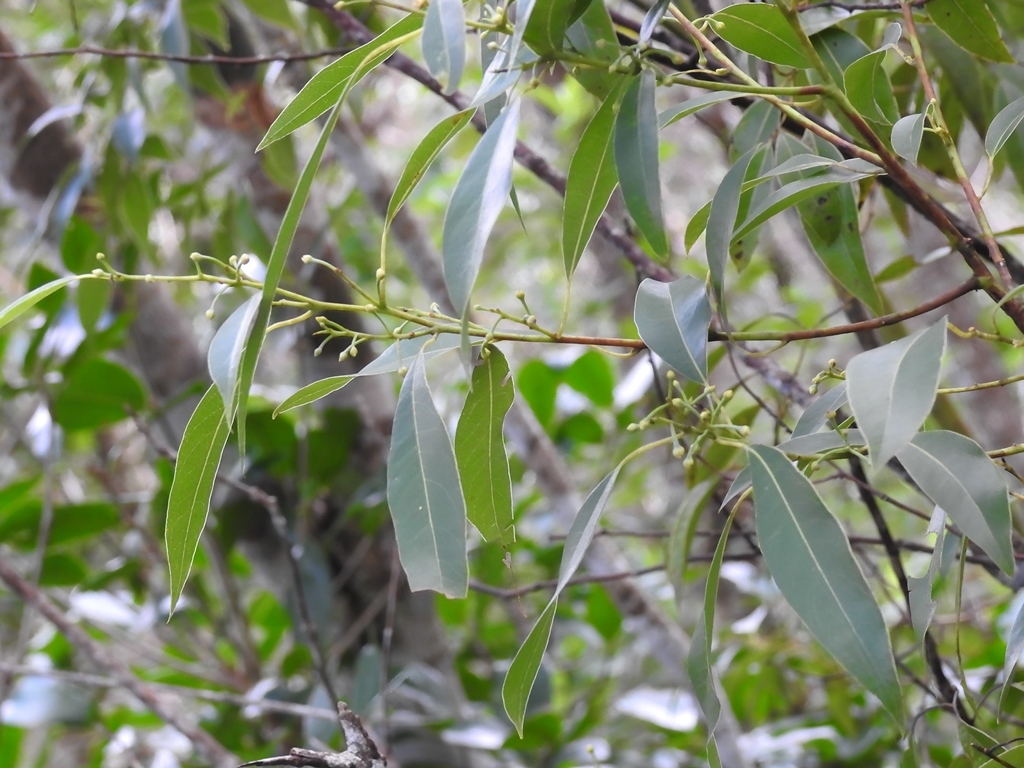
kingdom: Plantae
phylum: Tracheophyta
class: Magnoliopsida
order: Laurales
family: Lauraceae
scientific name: Lauraceae
